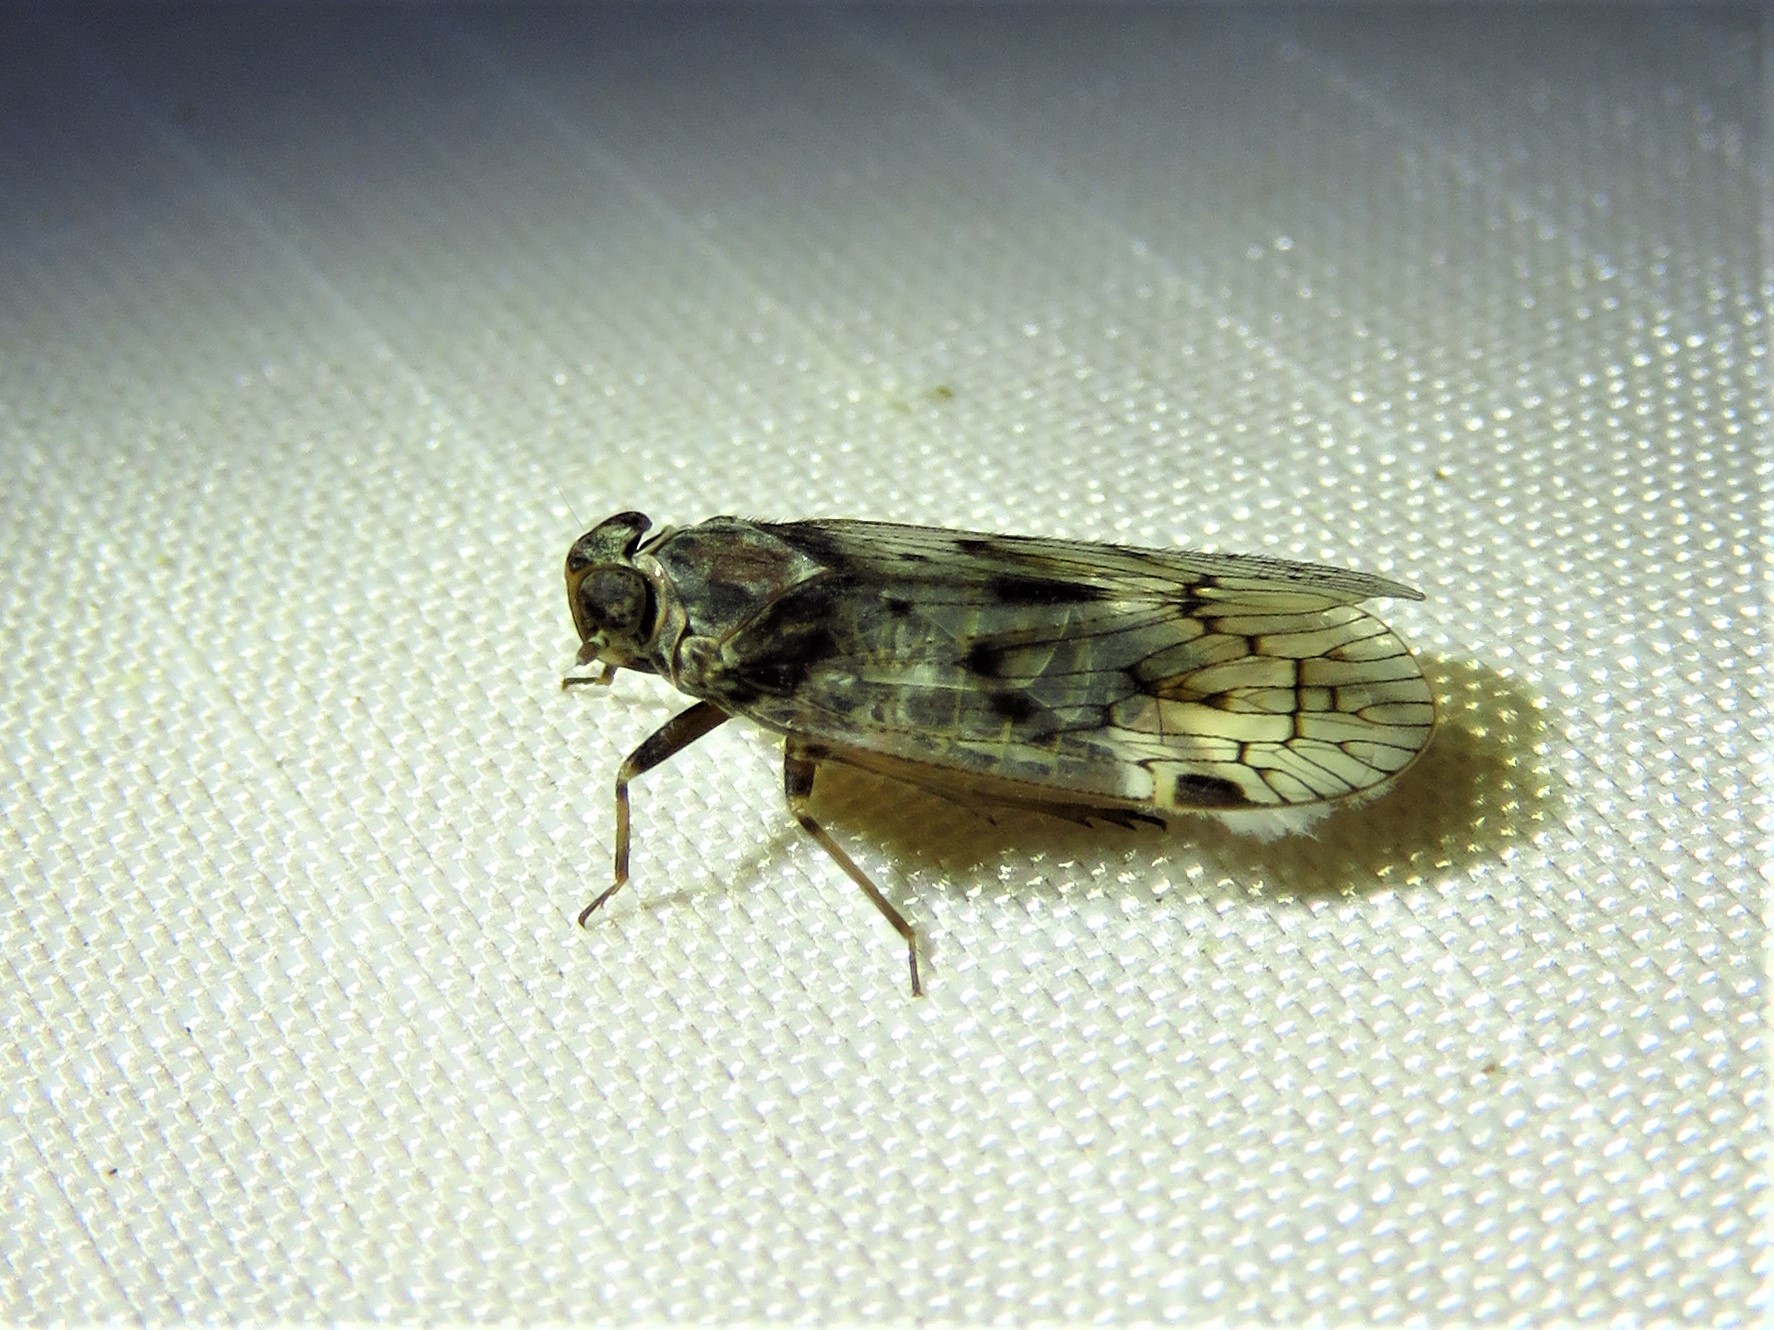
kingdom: Animalia
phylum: Arthropoda
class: Insecta
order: Hemiptera
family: Cixiidae
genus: Melanoliarus
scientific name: Melanoliarus aridus
